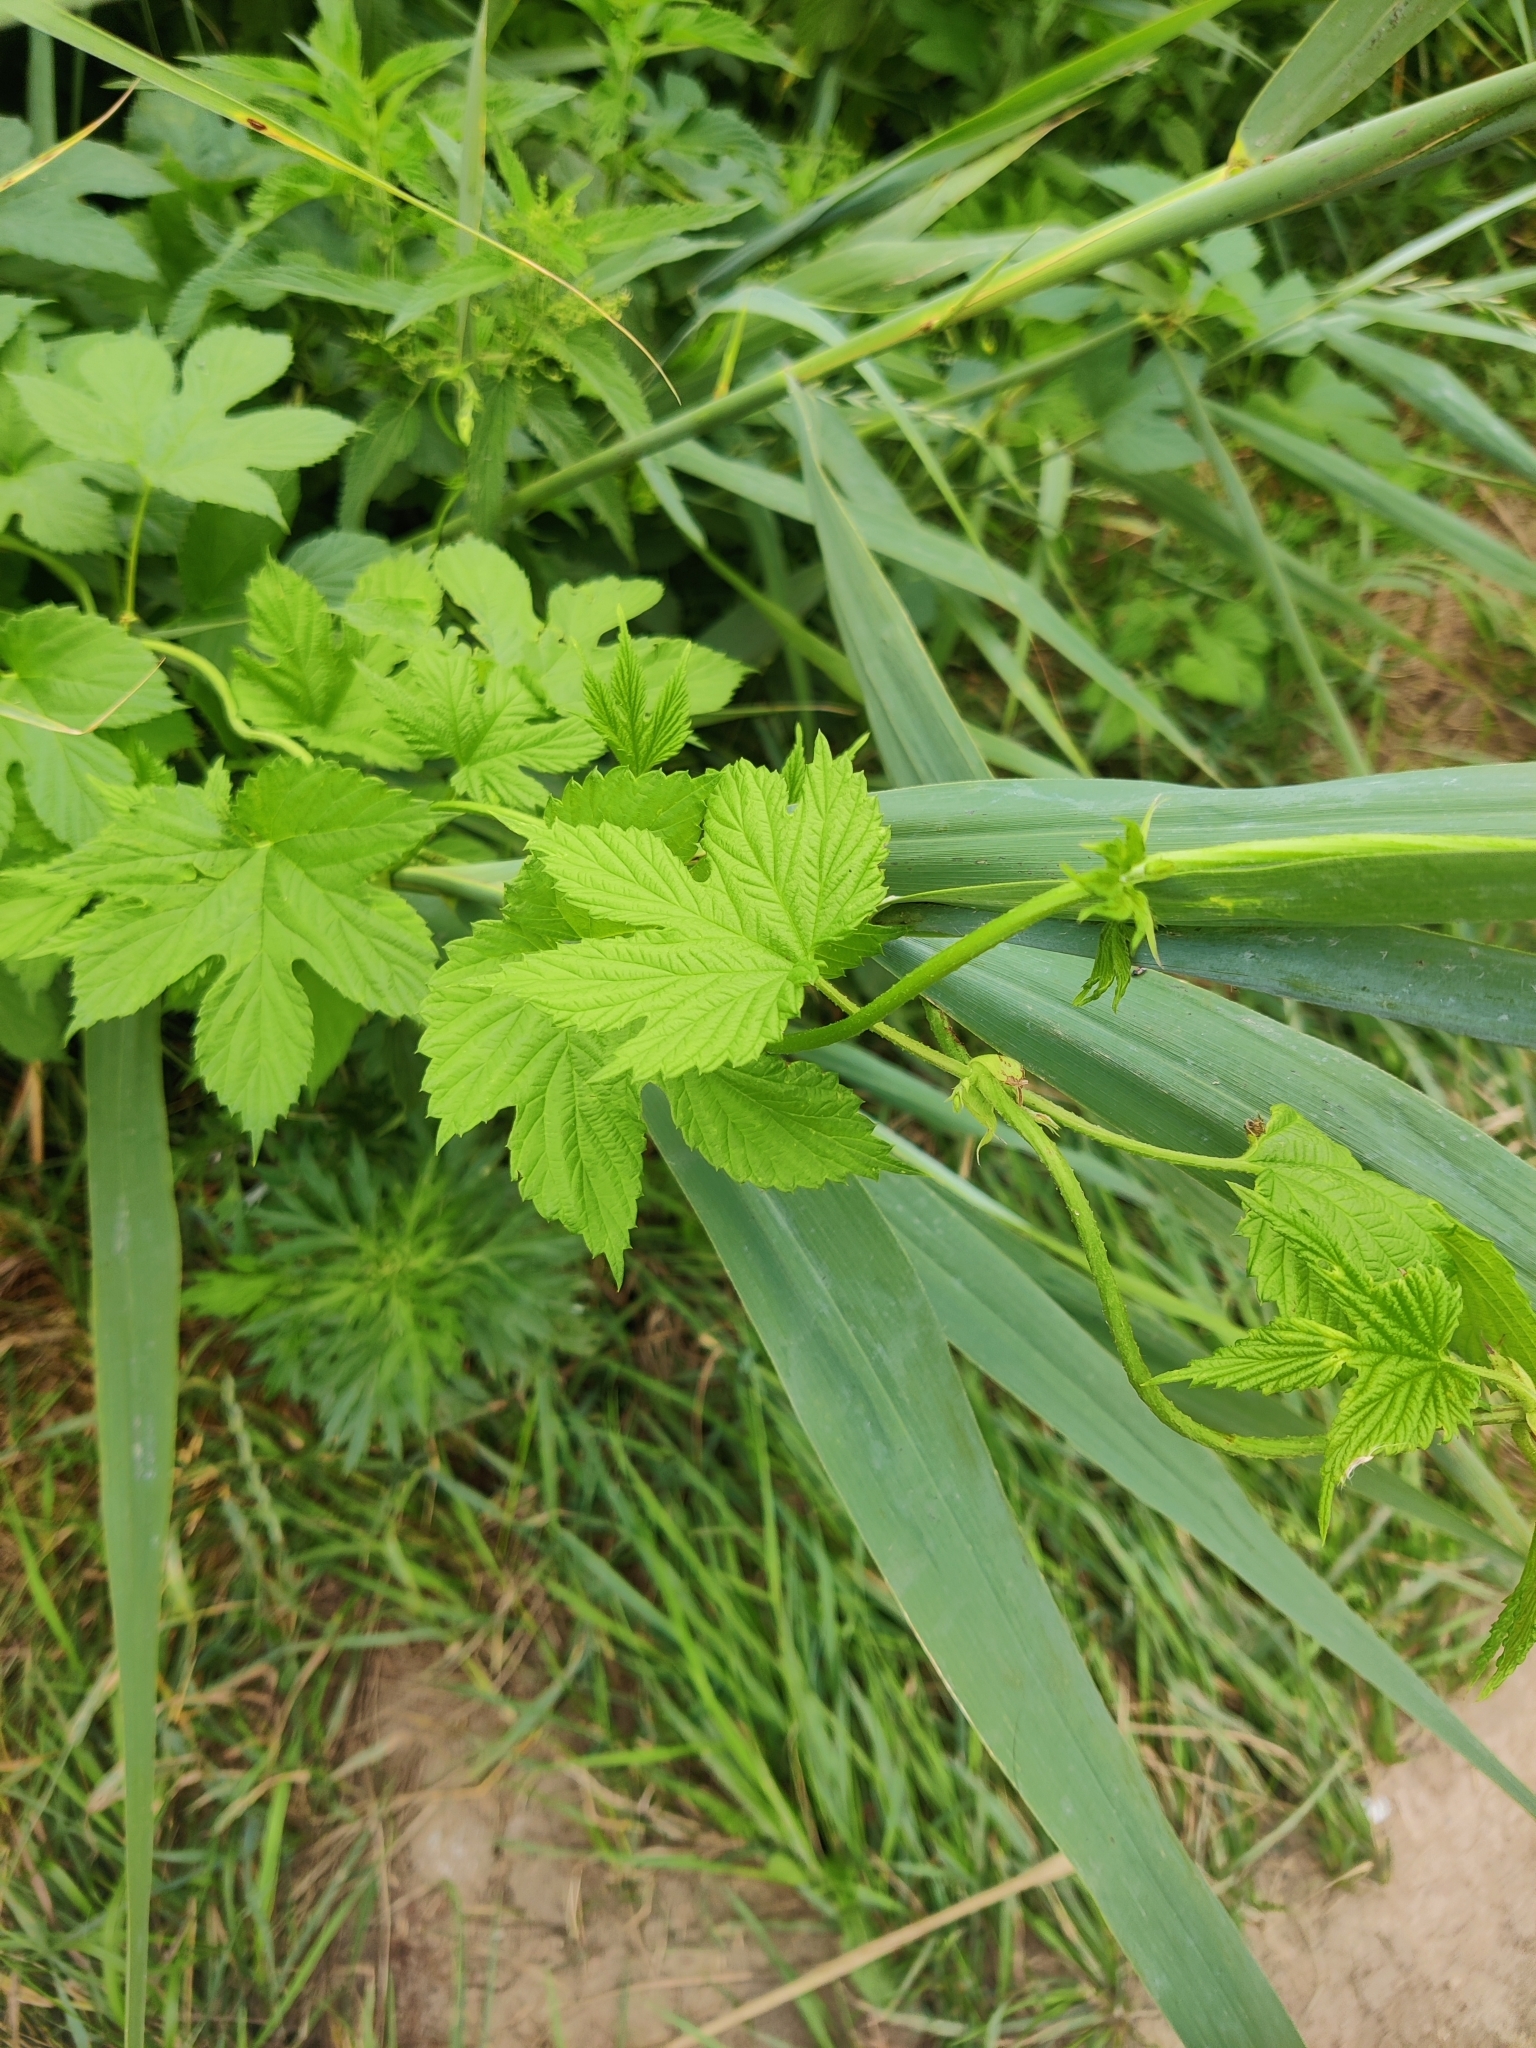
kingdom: Plantae
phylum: Tracheophyta
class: Magnoliopsida
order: Rosales
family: Cannabaceae
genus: Humulus
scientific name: Humulus lupulus
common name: Hop
